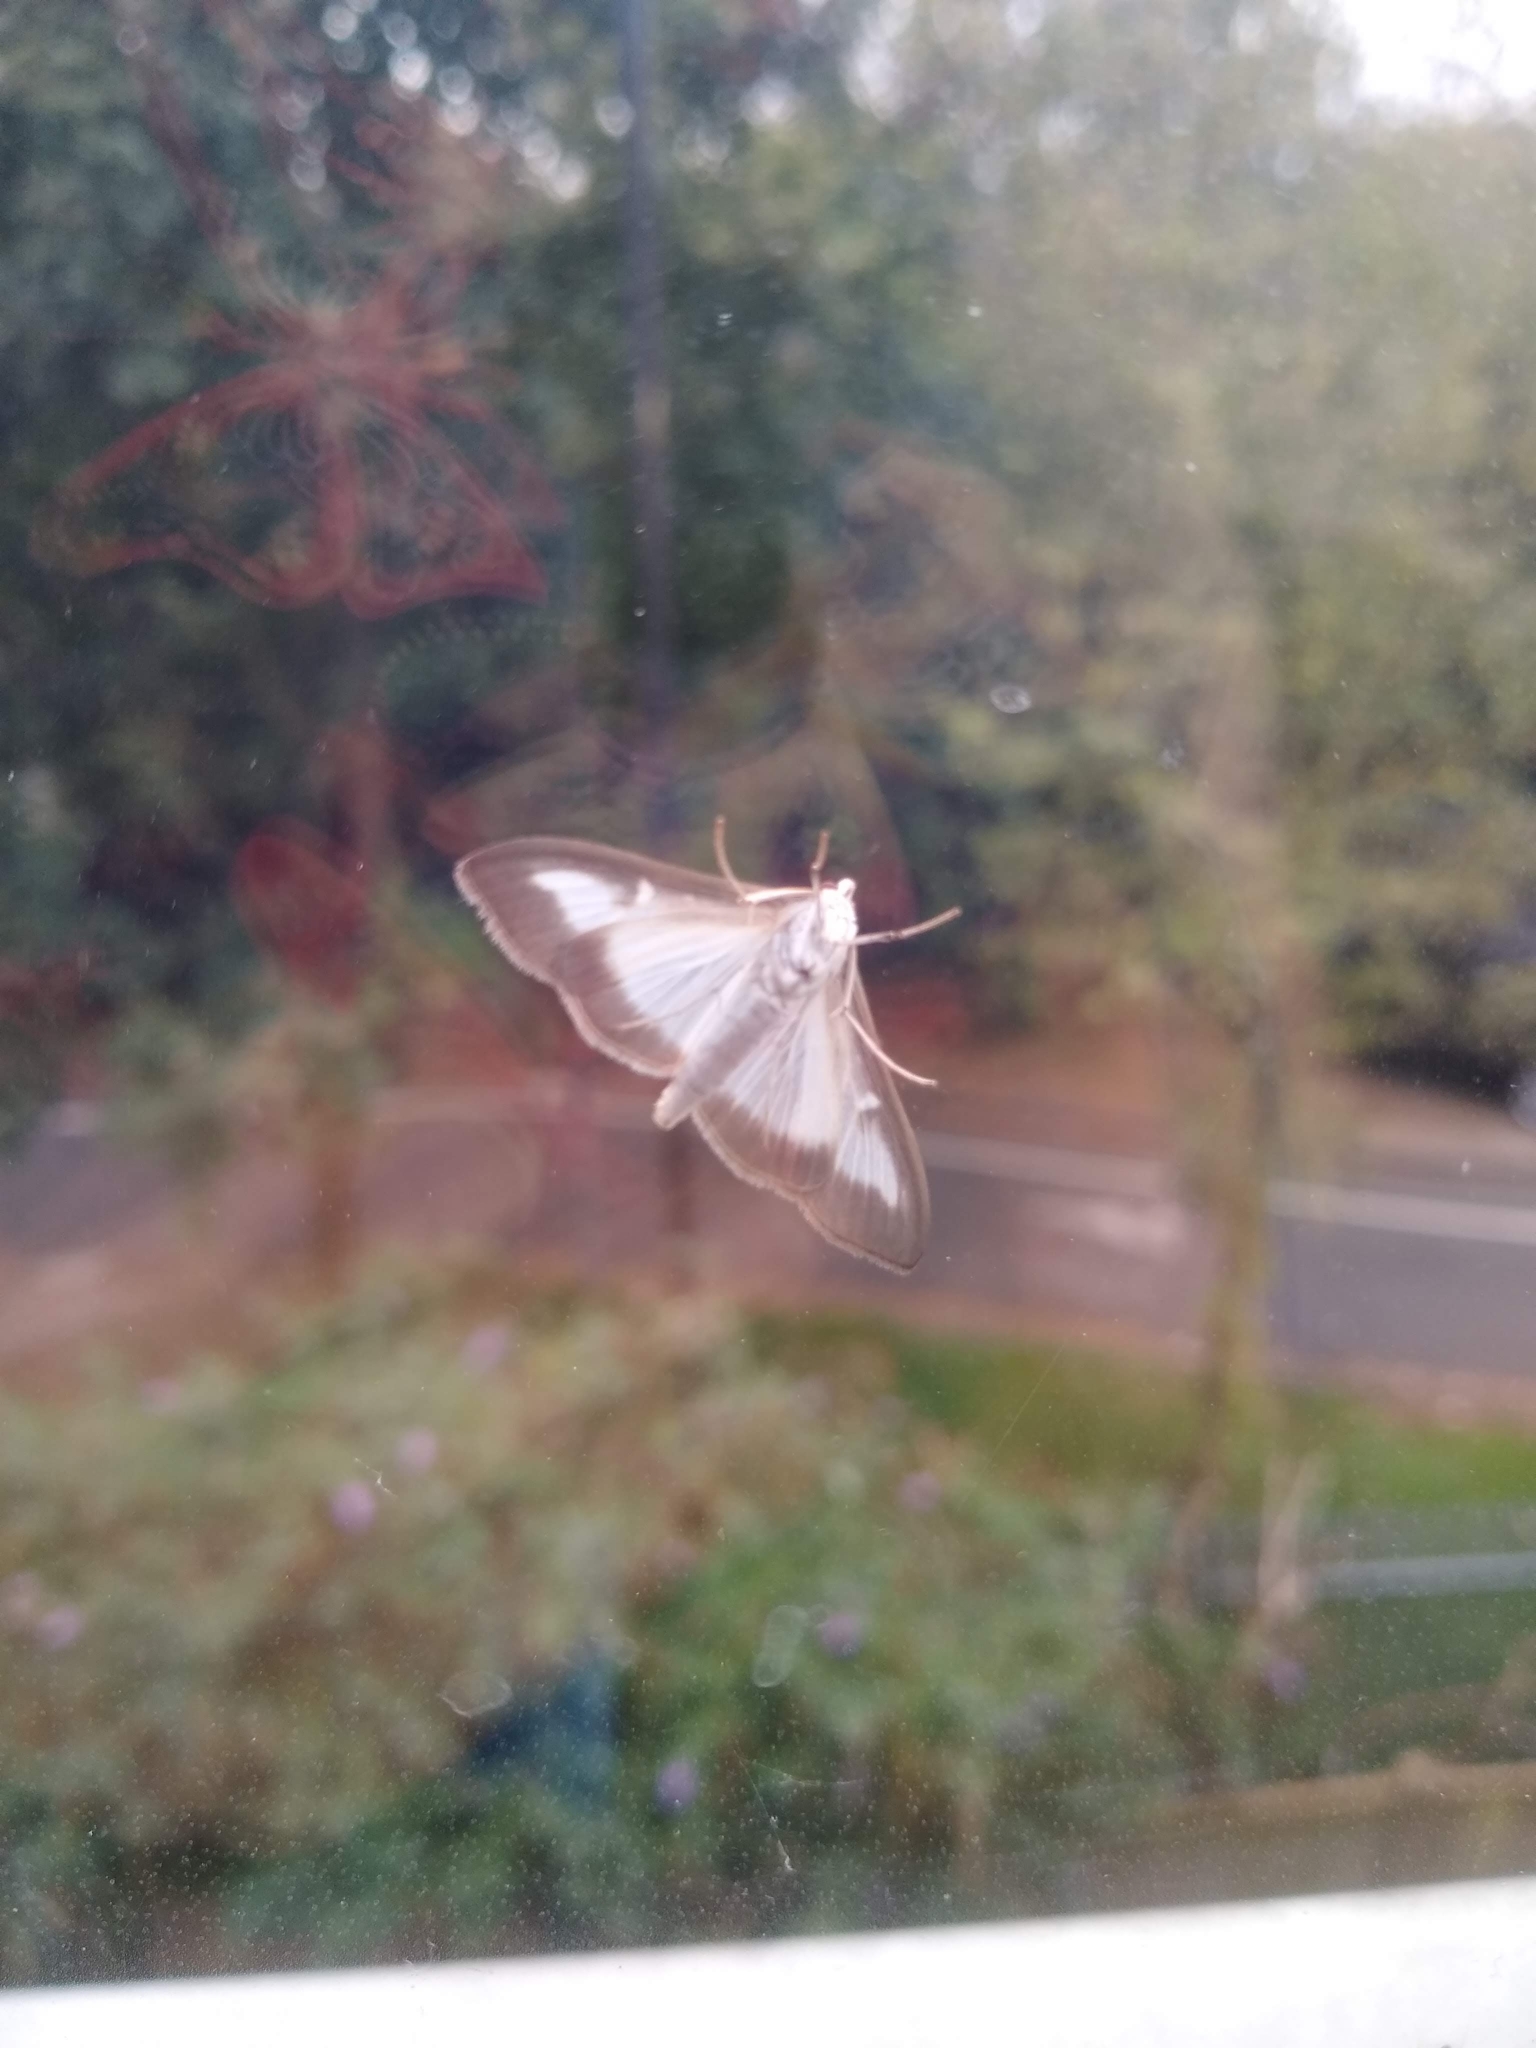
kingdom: Animalia
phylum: Arthropoda
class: Insecta
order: Lepidoptera
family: Crambidae
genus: Cydalima
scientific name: Cydalima perspectalis
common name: Box tree moth
